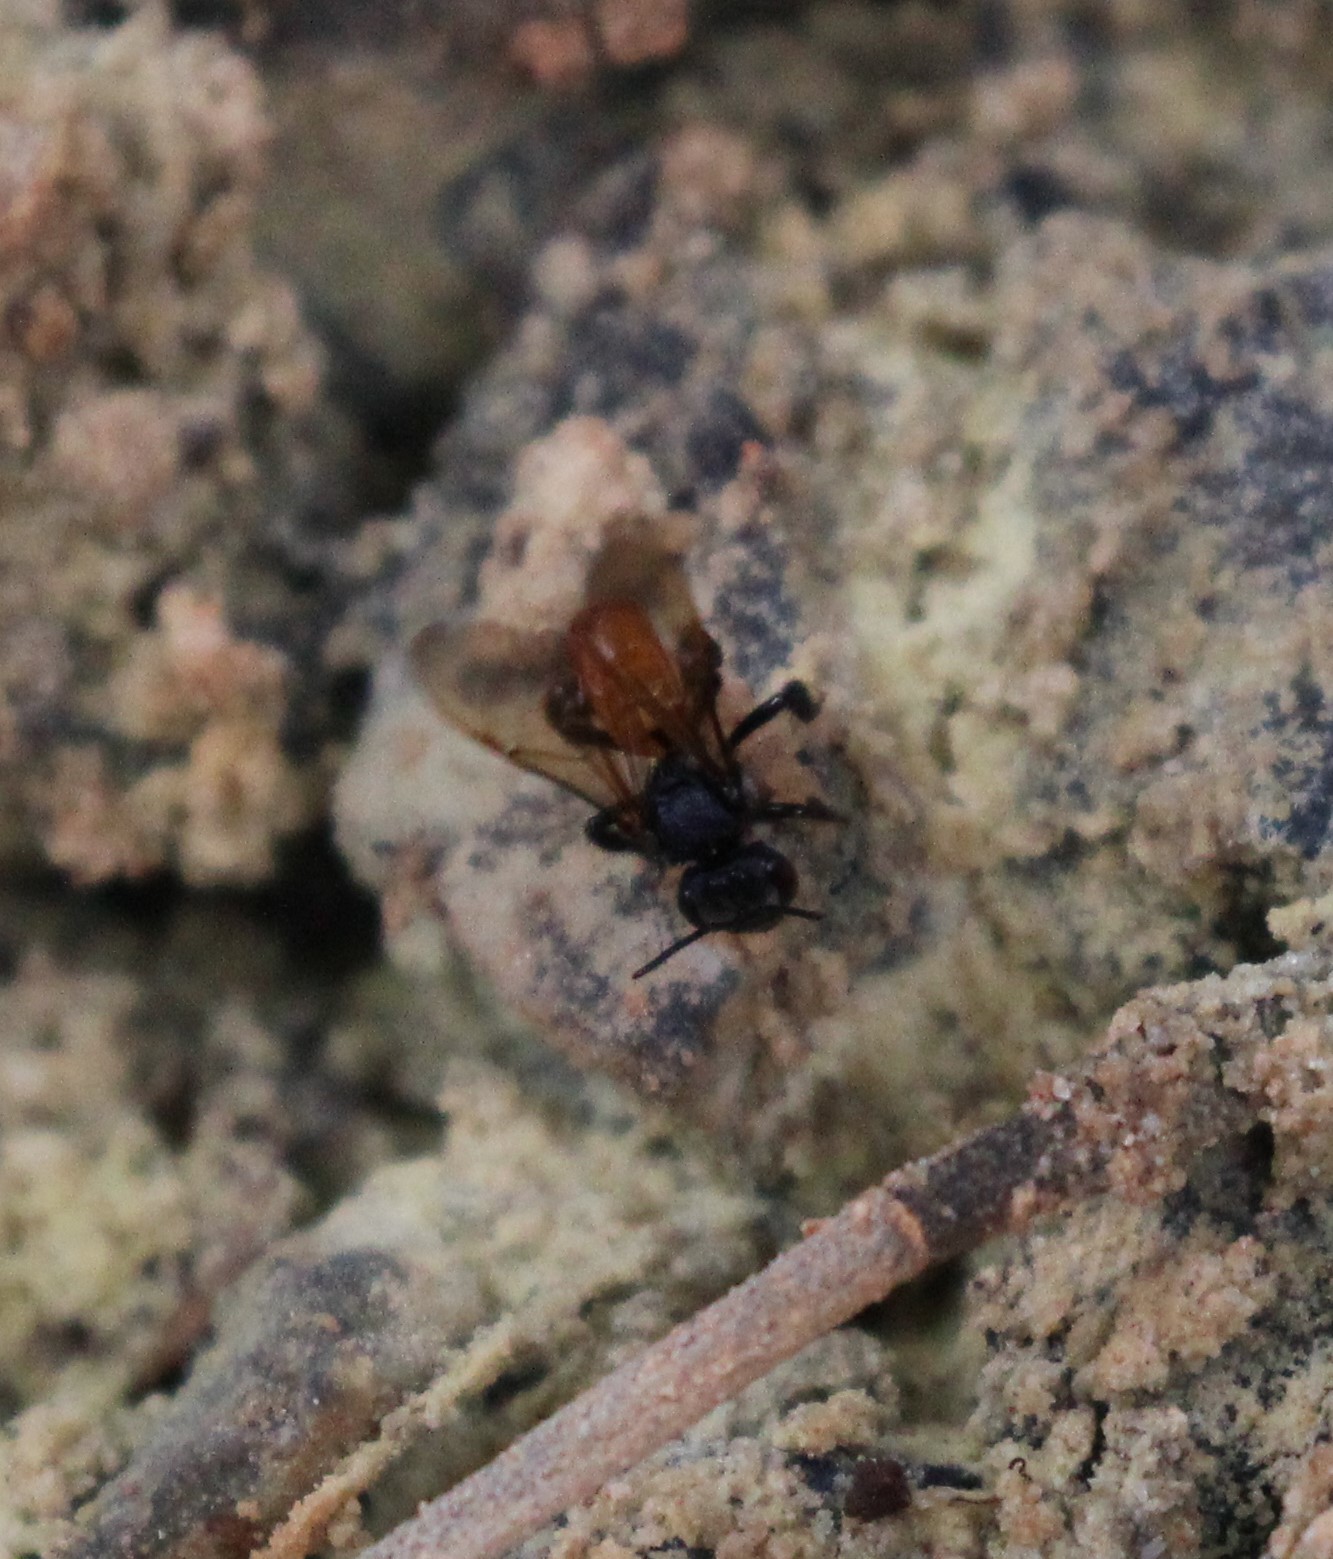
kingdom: Animalia
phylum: Arthropoda
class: Insecta
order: Hymenoptera
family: Apidae
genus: Trigona
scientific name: Trigona fulviventris
